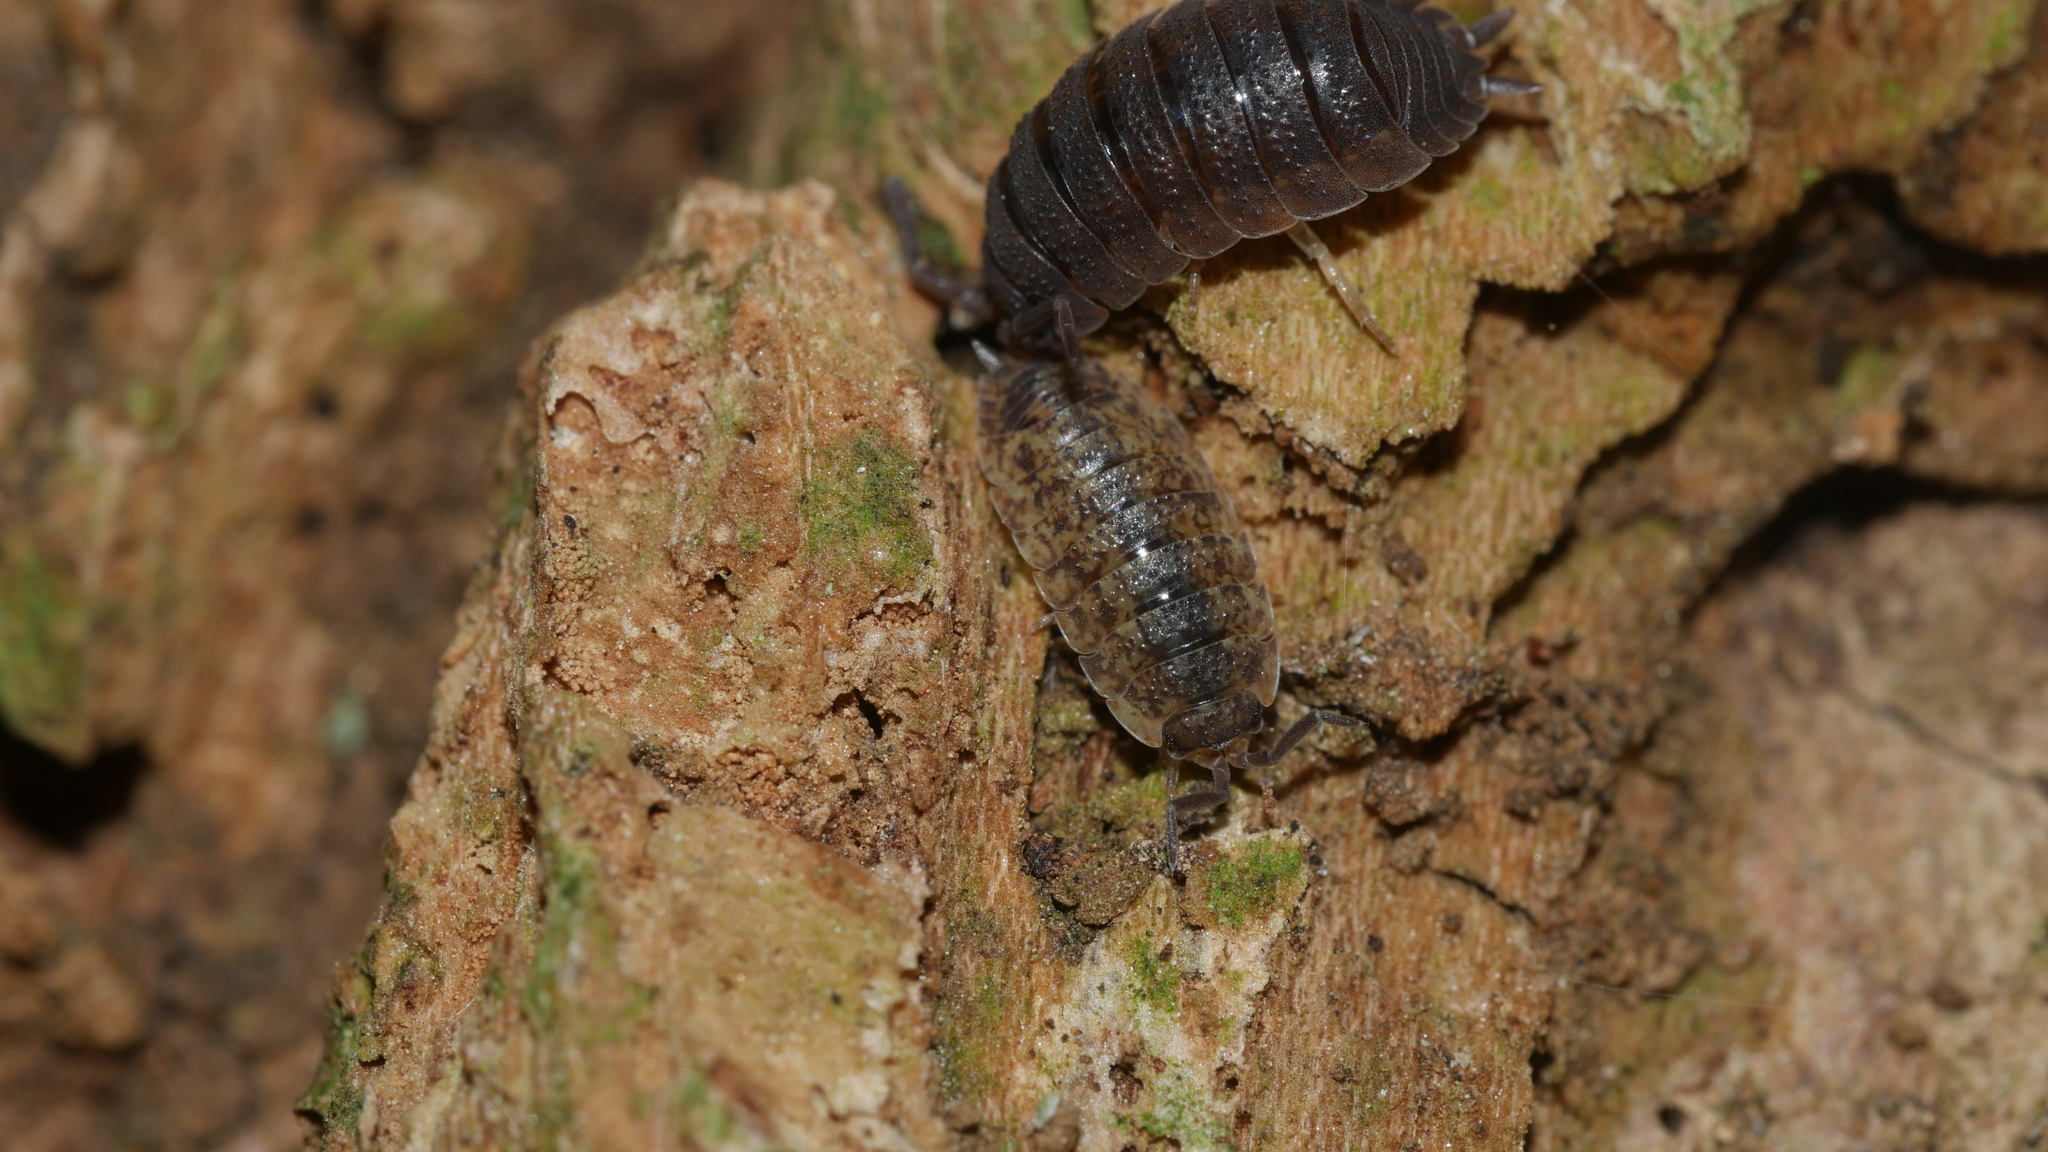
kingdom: Animalia
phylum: Arthropoda
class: Malacostraca
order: Isopoda
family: Porcellionidae
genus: Porcellio
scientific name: Porcellio scaber
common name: Common rough woodlouse
